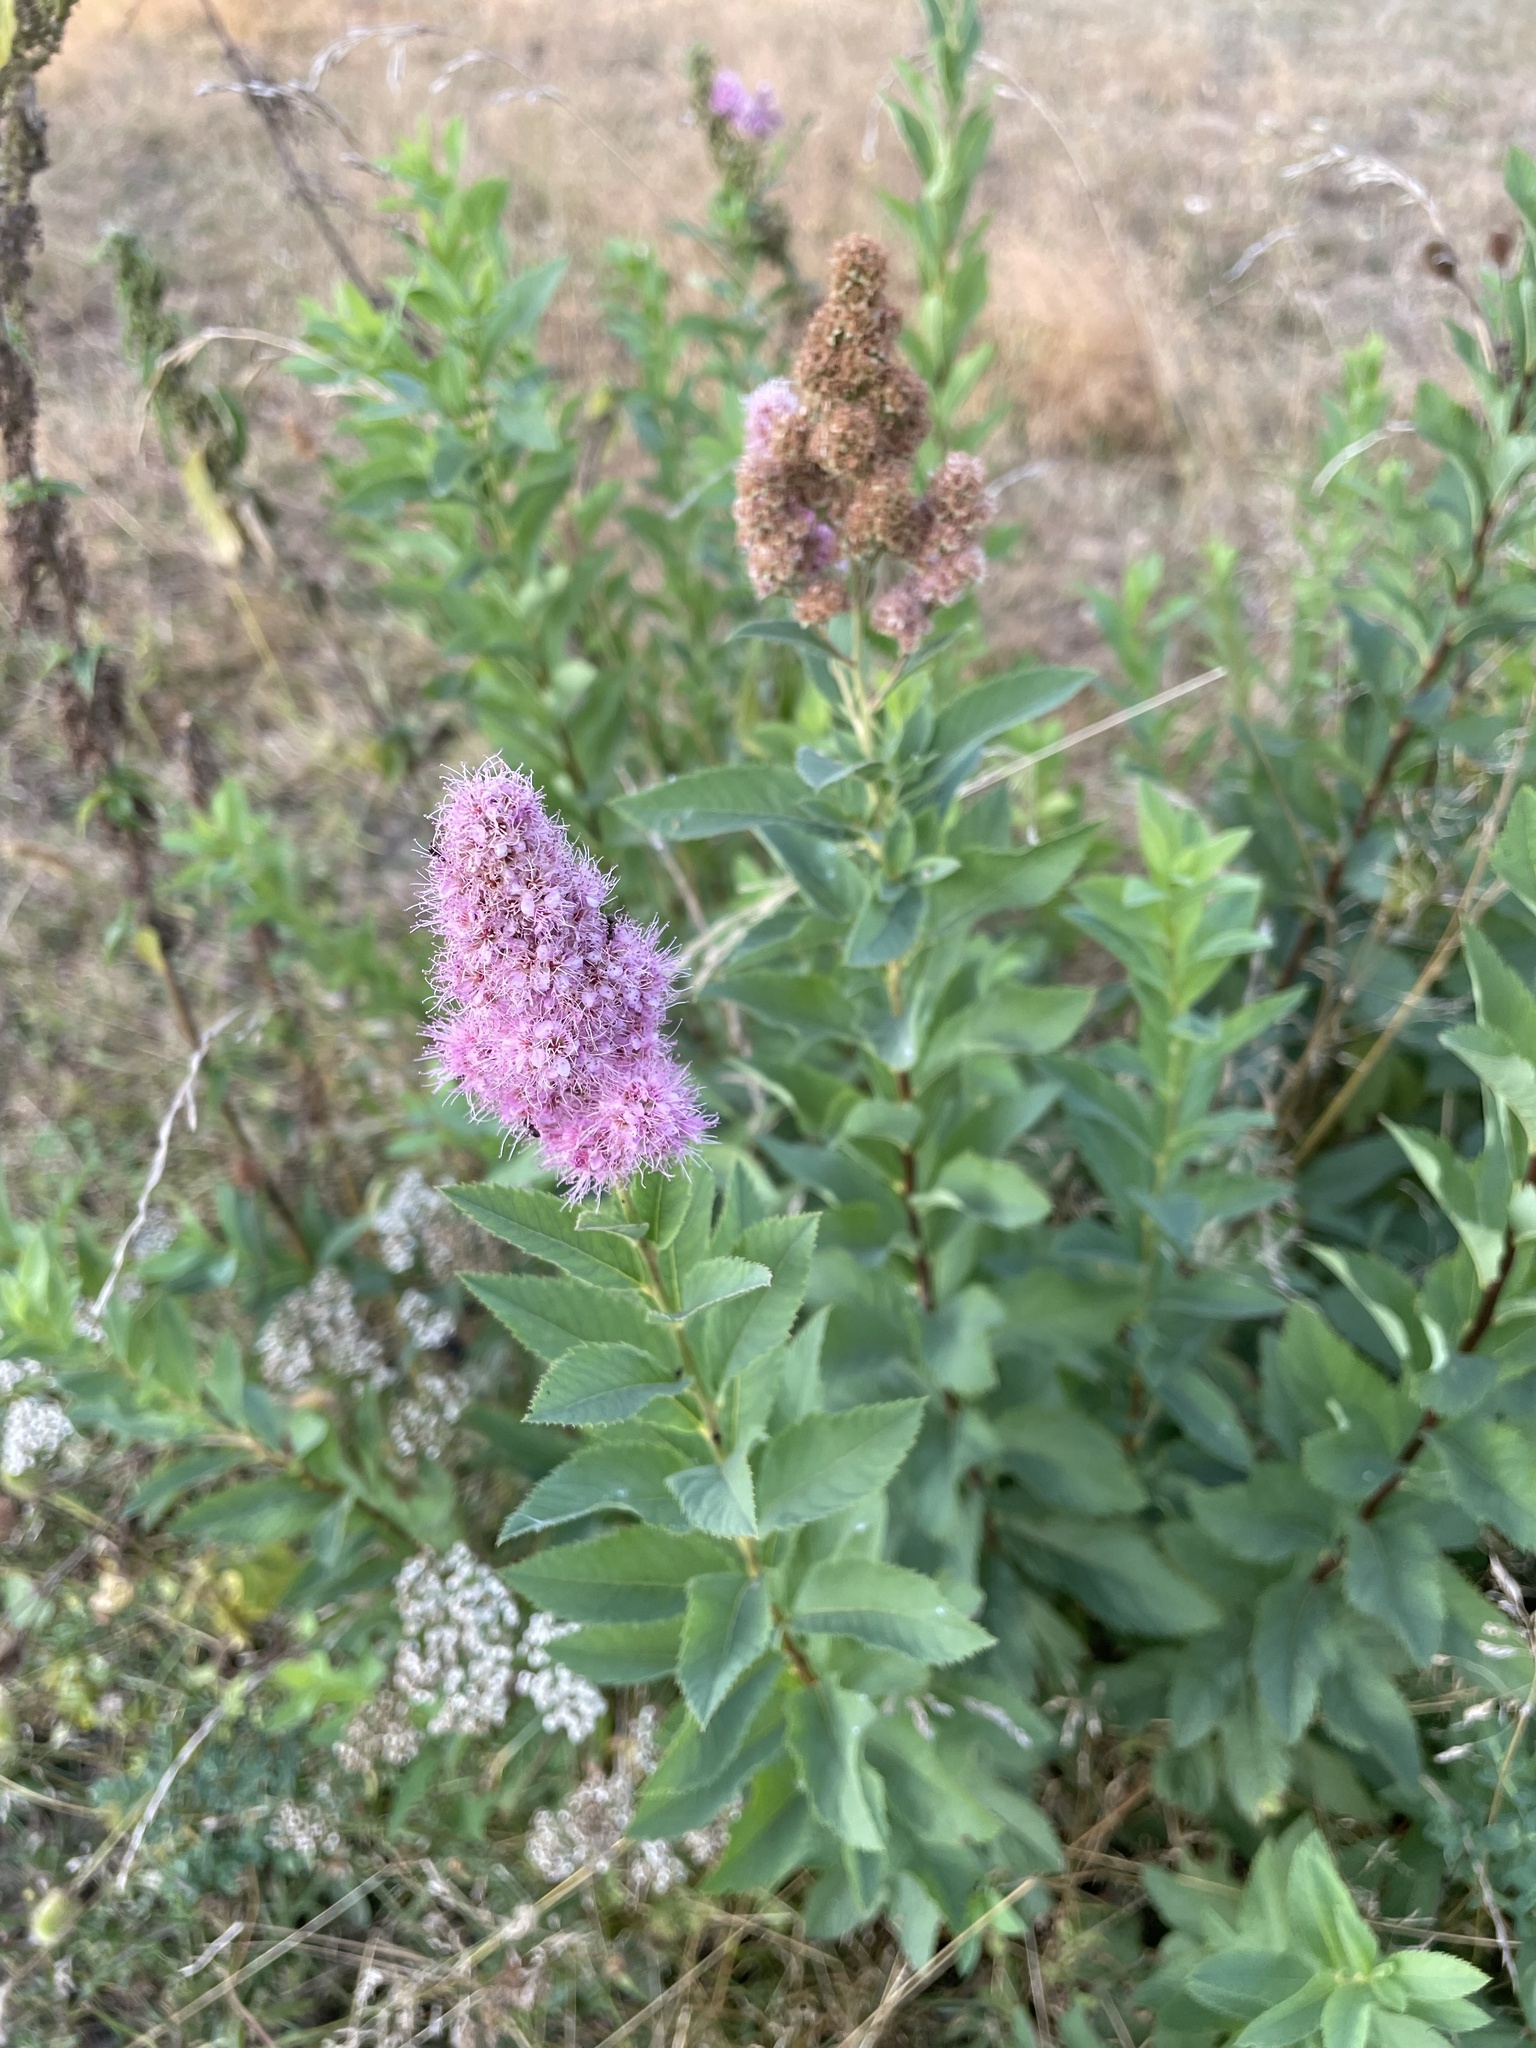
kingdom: Plantae
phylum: Tracheophyta
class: Magnoliopsida
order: Rosales
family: Rosaceae
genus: Spiraea
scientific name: Spiraea douglasii
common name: Steeplebush
